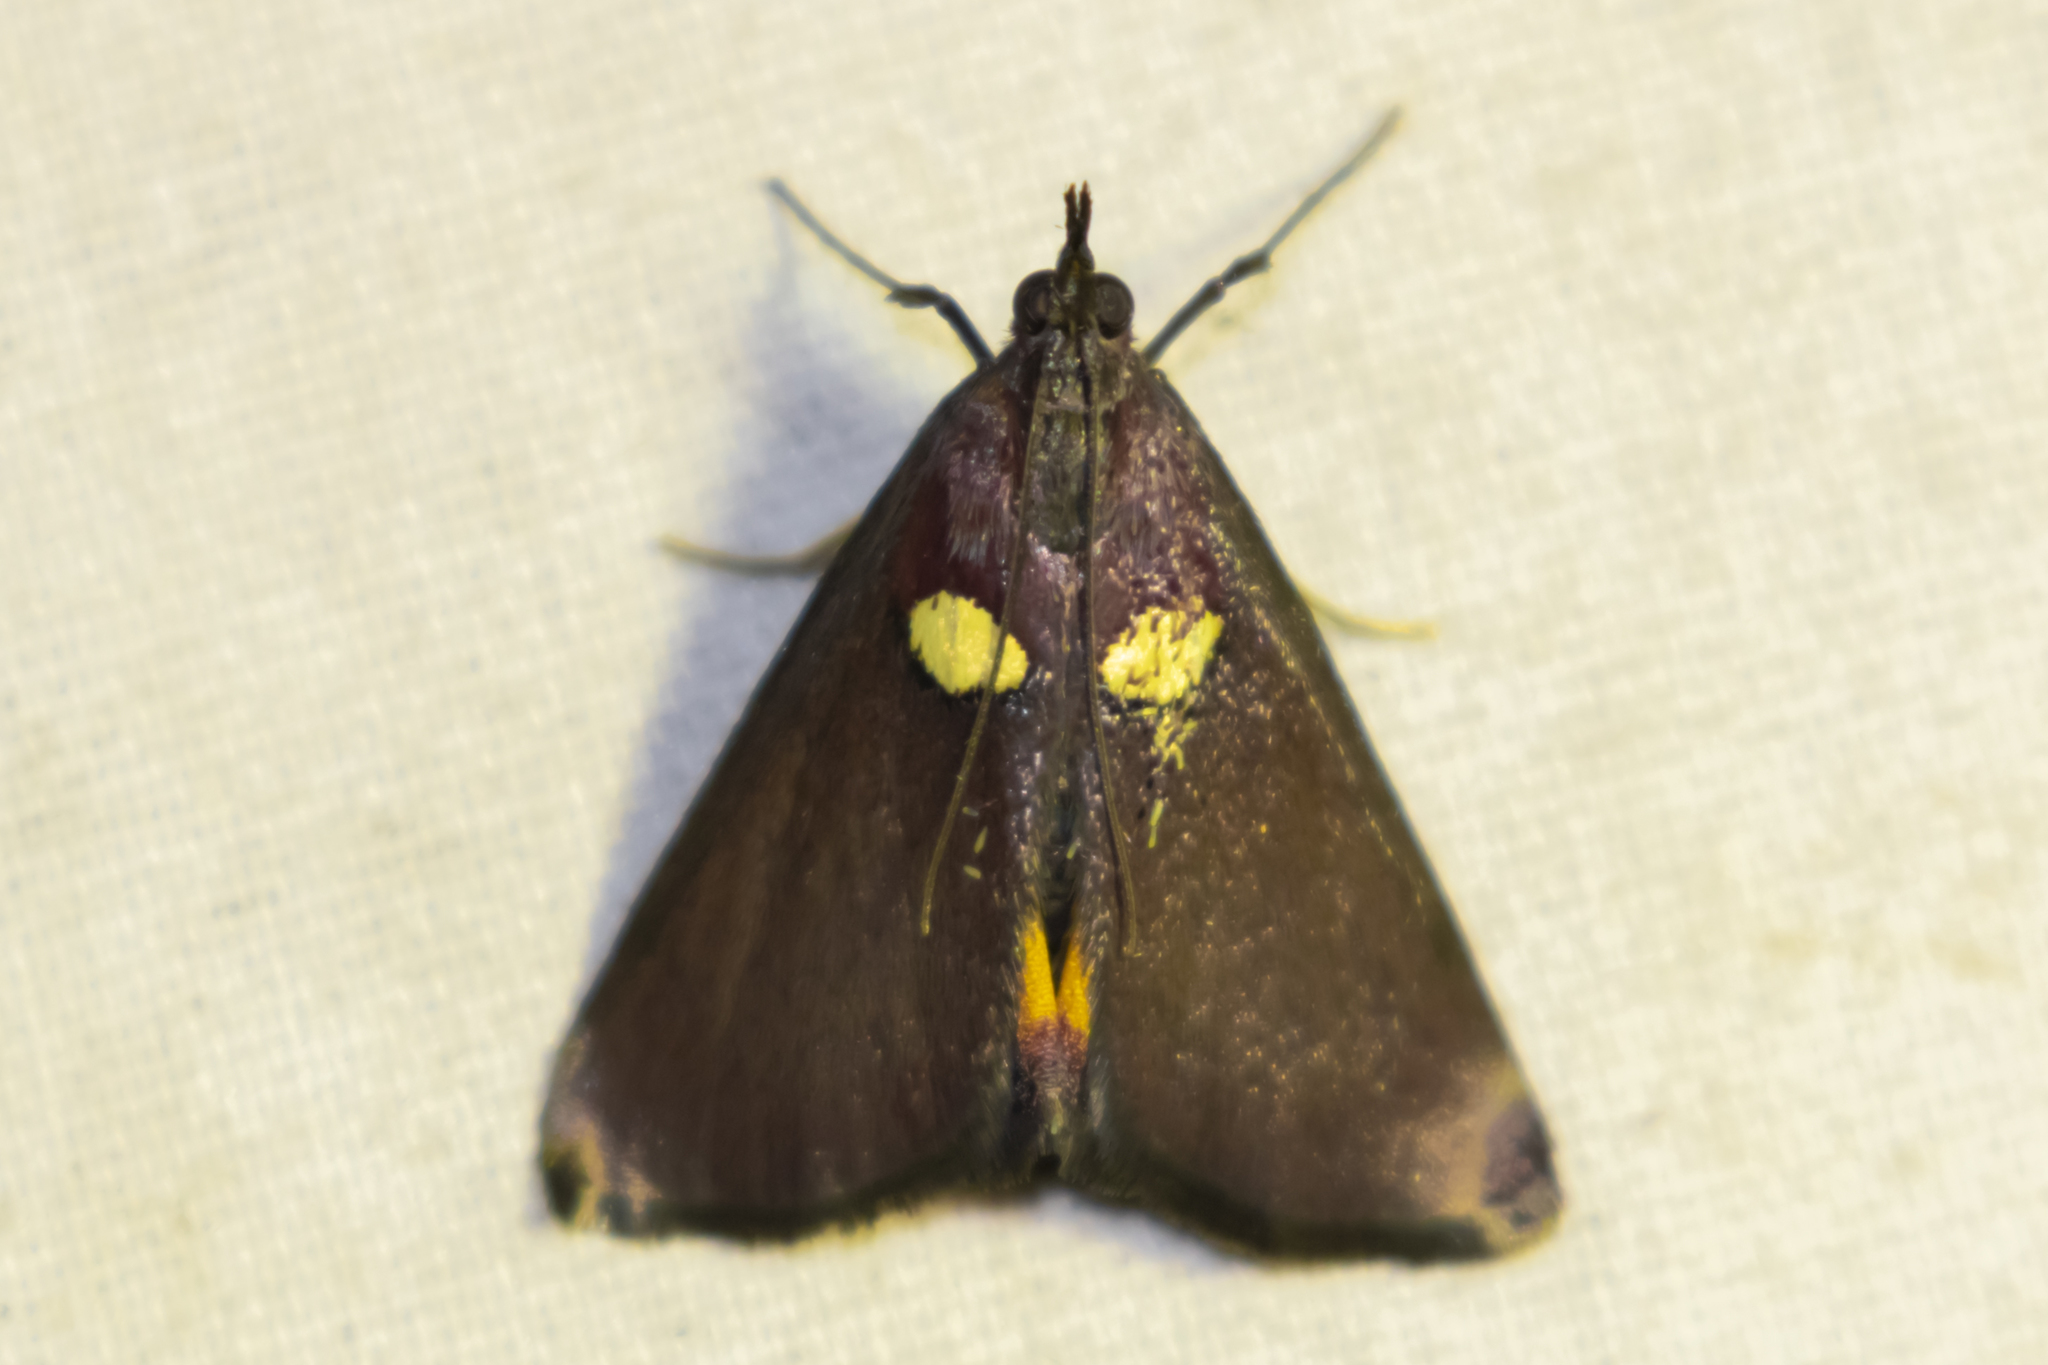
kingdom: Animalia
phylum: Arthropoda
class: Insecta
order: Lepidoptera
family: Pyralidae
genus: Semnia
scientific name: Semnia auritalis
